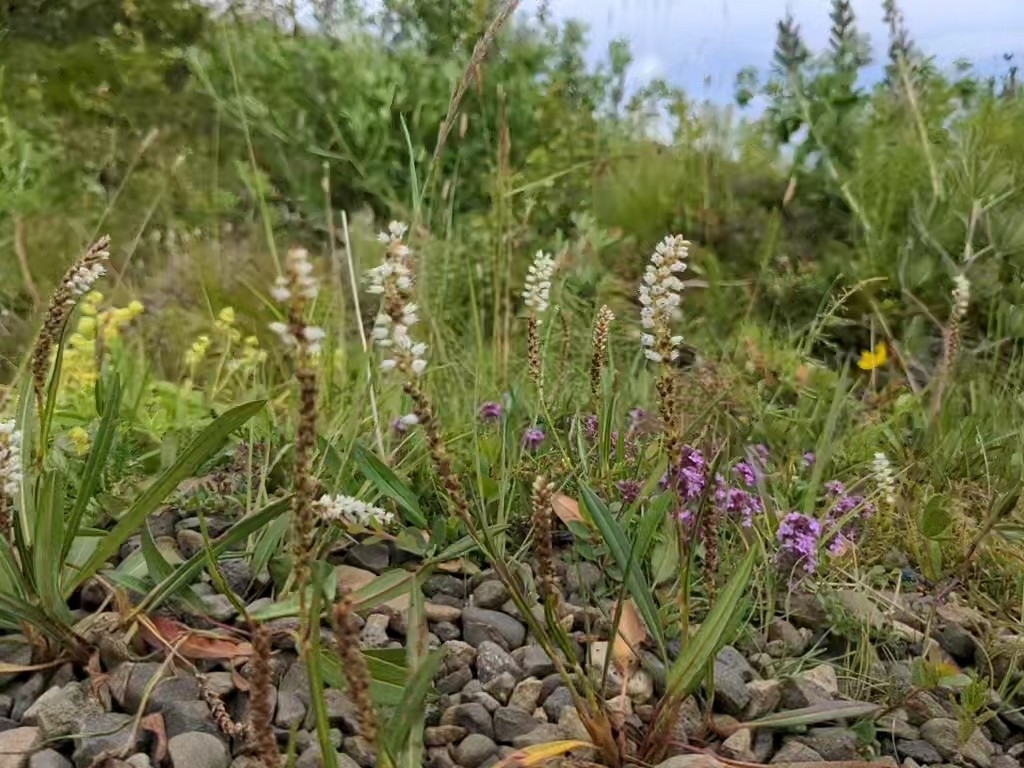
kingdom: Plantae
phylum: Tracheophyta
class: Magnoliopsida
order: Caryophyllales
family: Polygonaceae
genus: Bistorta
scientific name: Bistorta vivipara
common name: Alpine bistort
